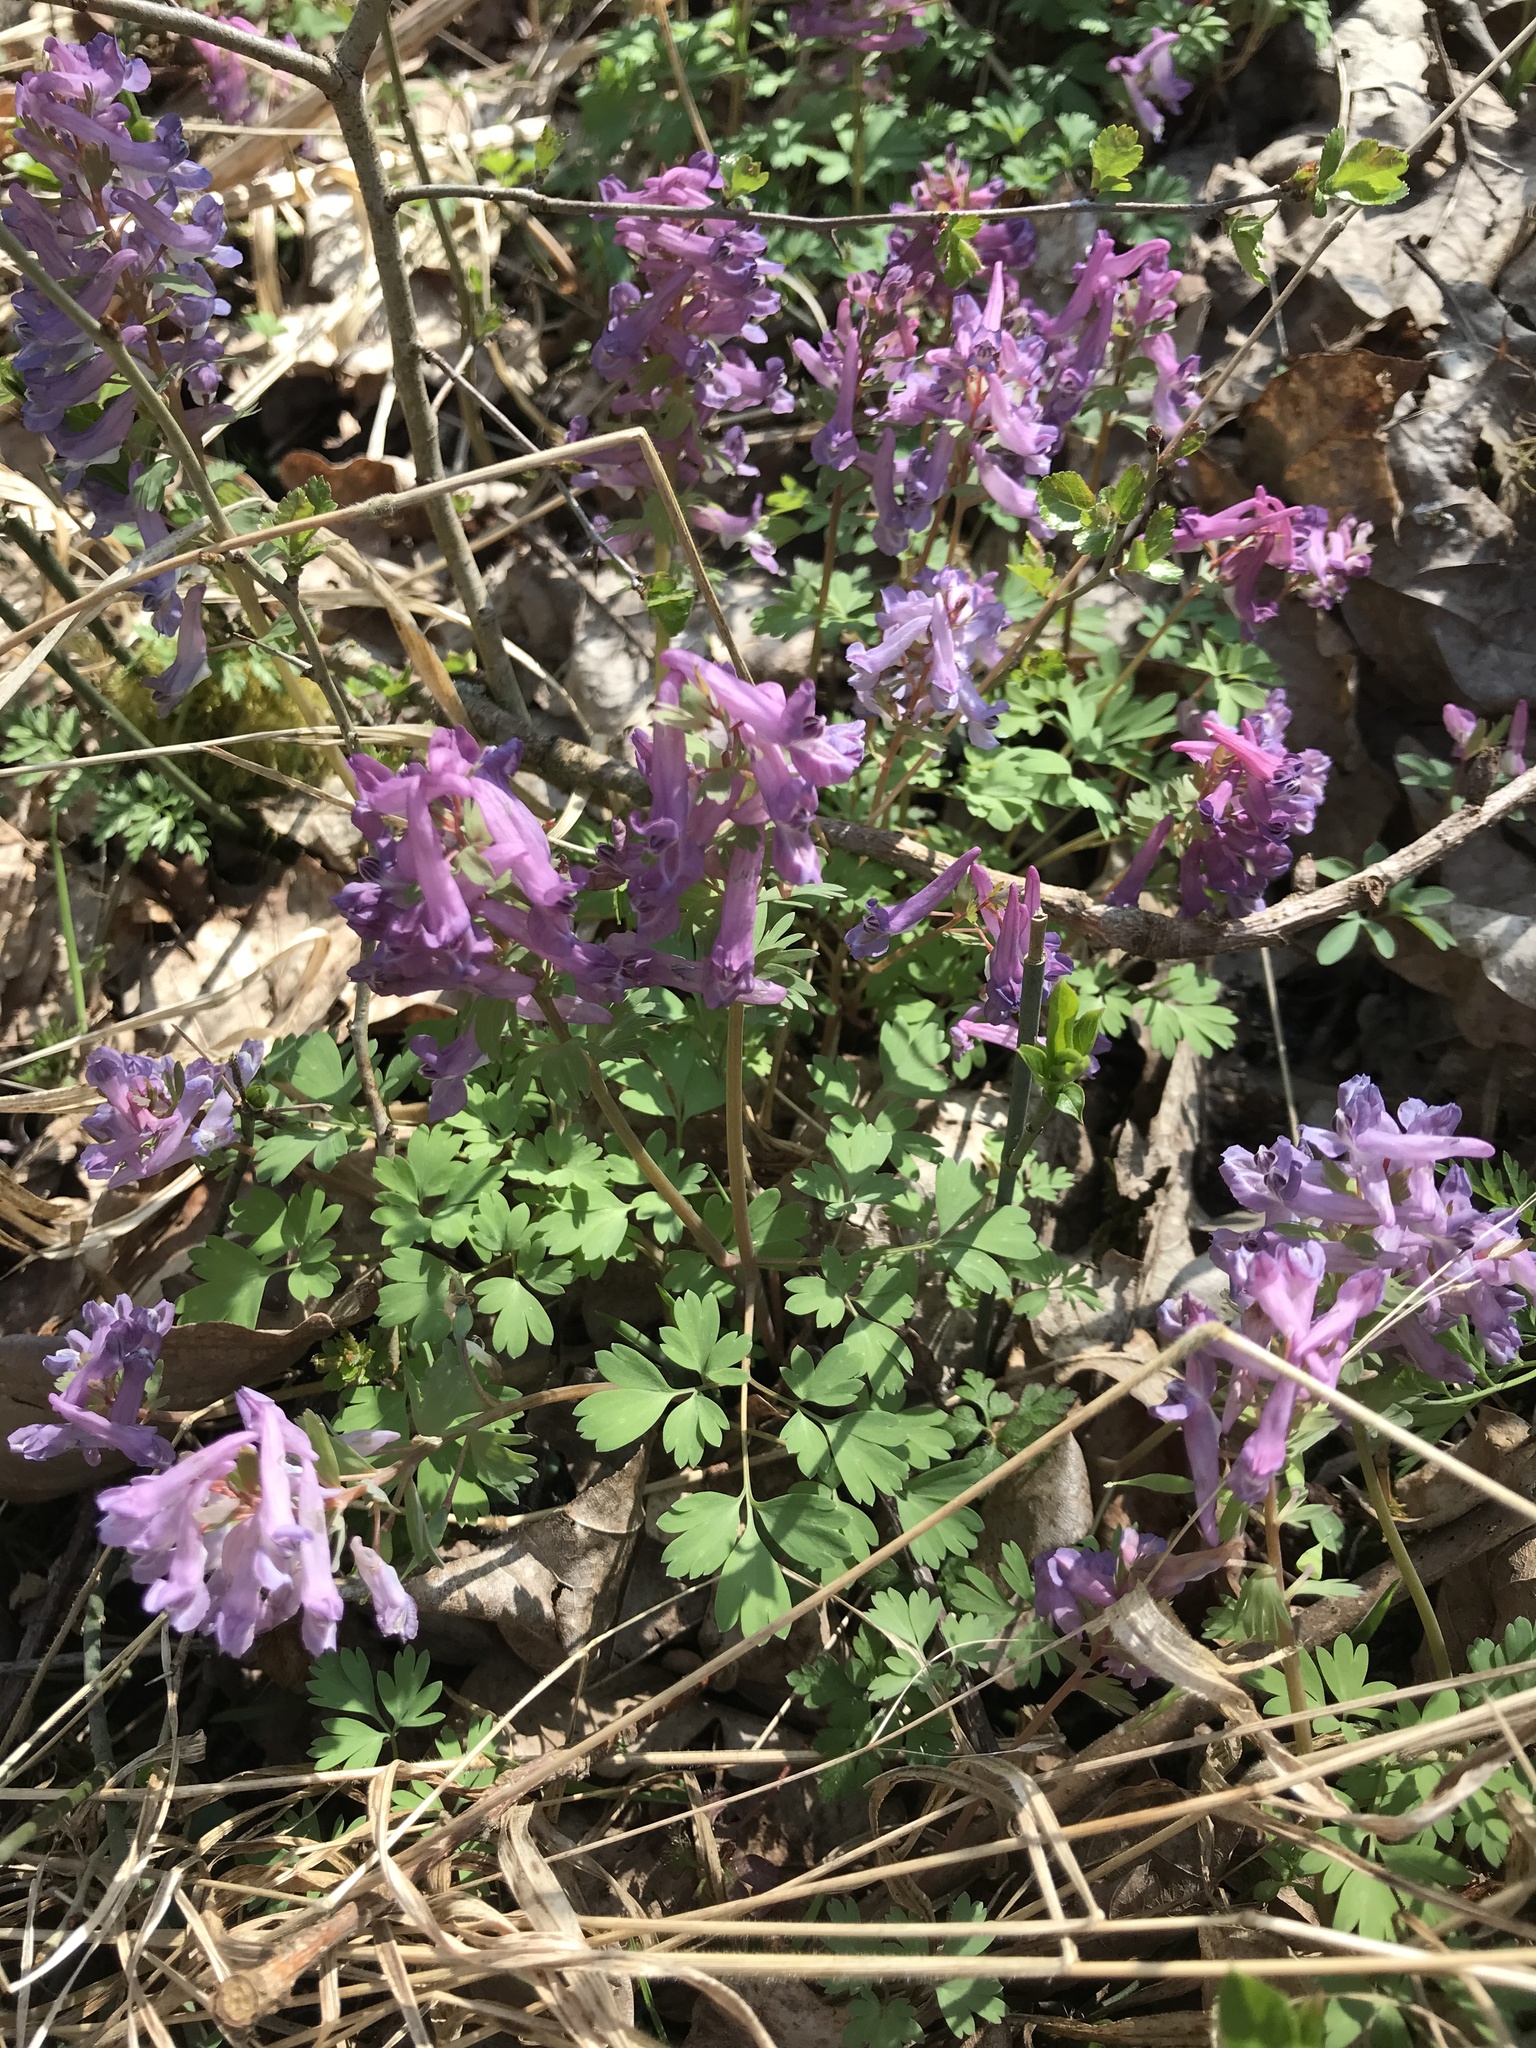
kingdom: Plantae
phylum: Tracheophyta
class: Magnoliopsida
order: Ranunculales
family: Papaveraceae
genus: Corydalis
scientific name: Corydalis solida
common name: Bird-in-a-bush
